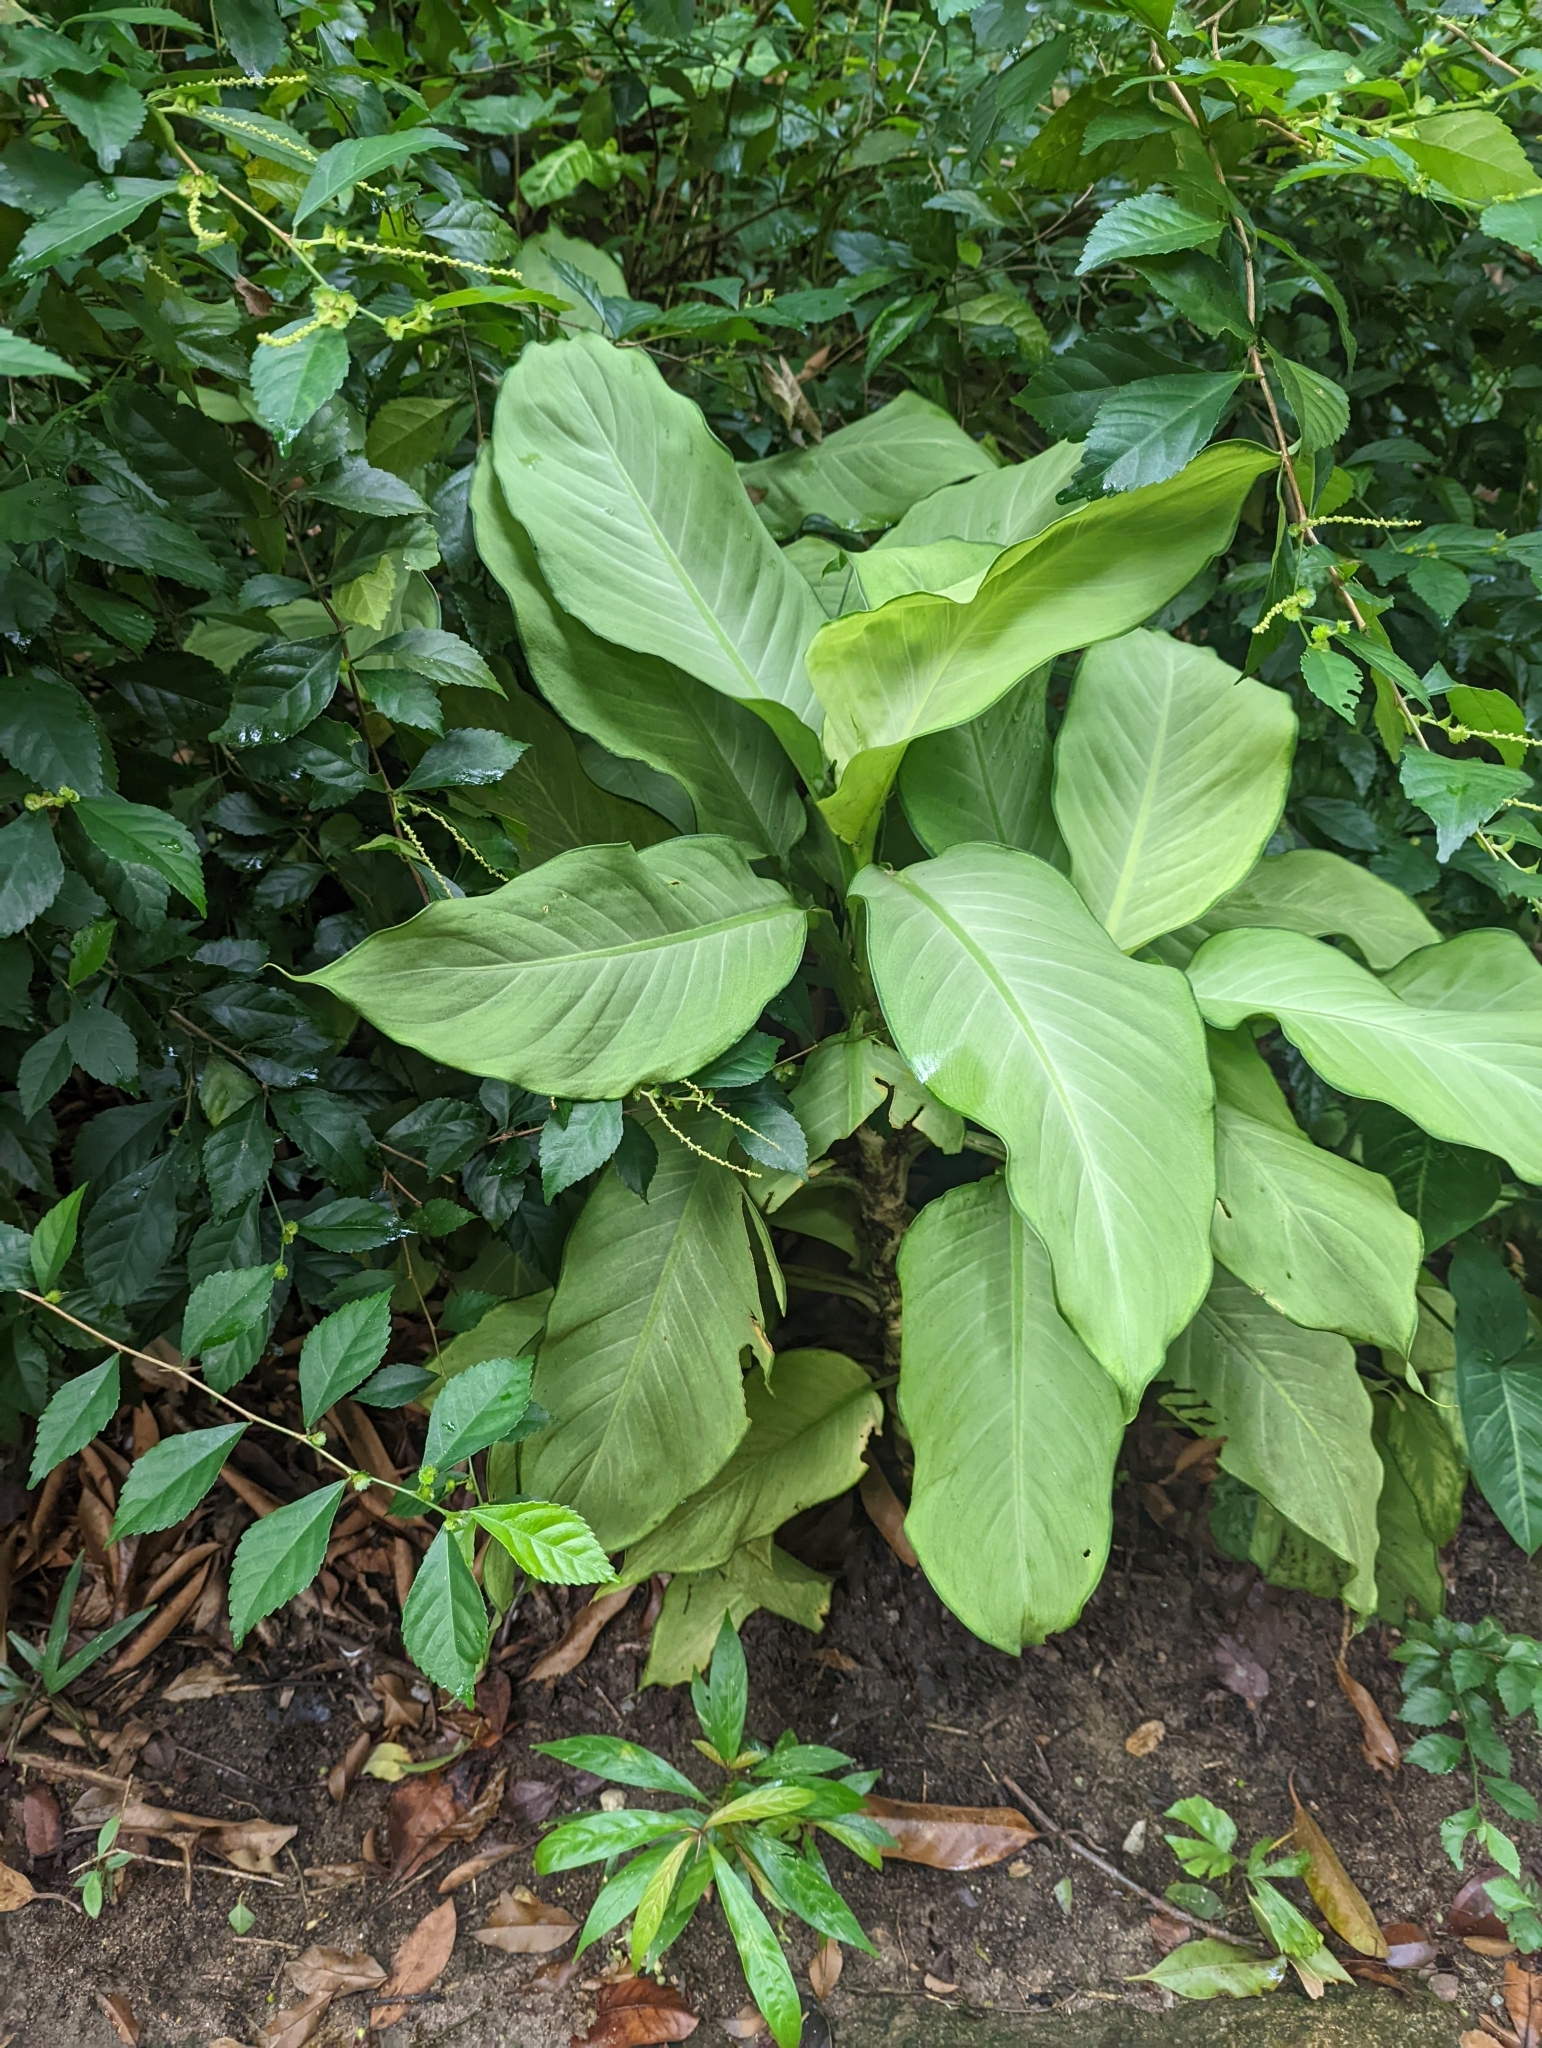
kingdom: Plantae
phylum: Tracheophyta
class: Liliopsida
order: Alismatales
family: Araceae
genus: Dieffenbachia
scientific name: Dieffenbachia seguine
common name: Dumbcane
